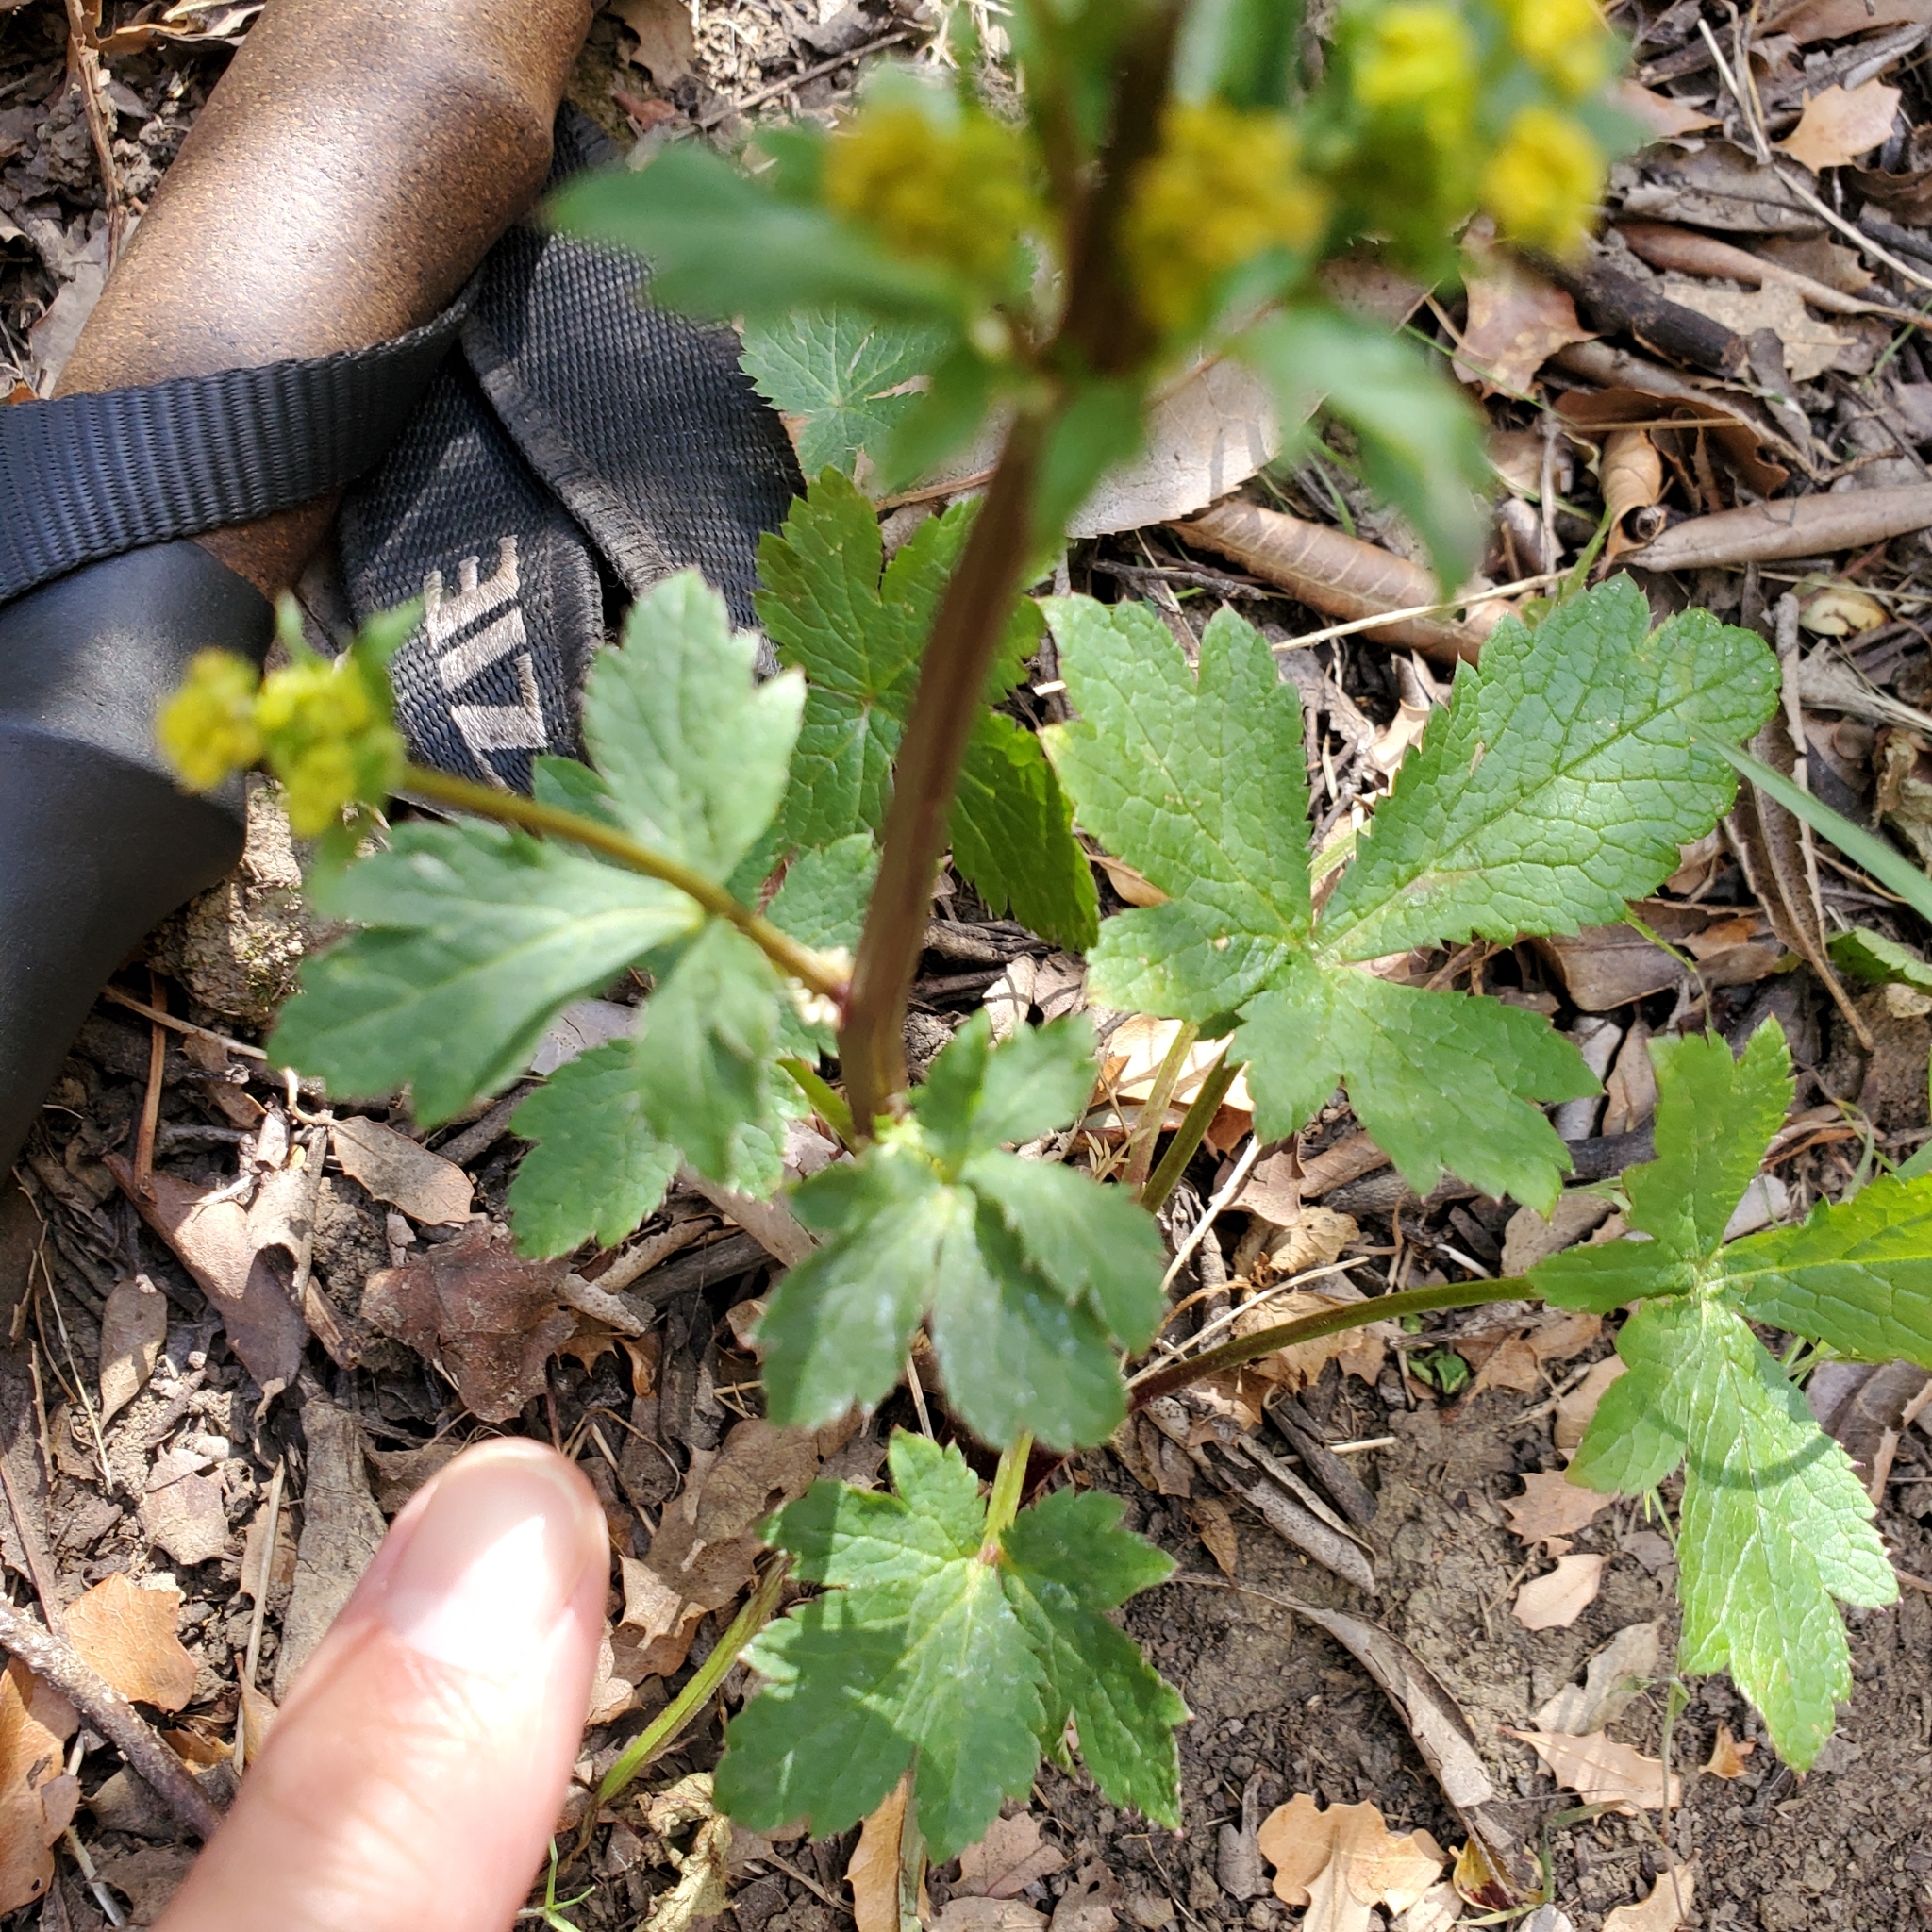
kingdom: Plantae
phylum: Tracheophyta
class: Magnoliopsida
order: Apiales
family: Apiaceae
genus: Sanicula
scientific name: Sanicula crassicaulis
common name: Western snakeroot
